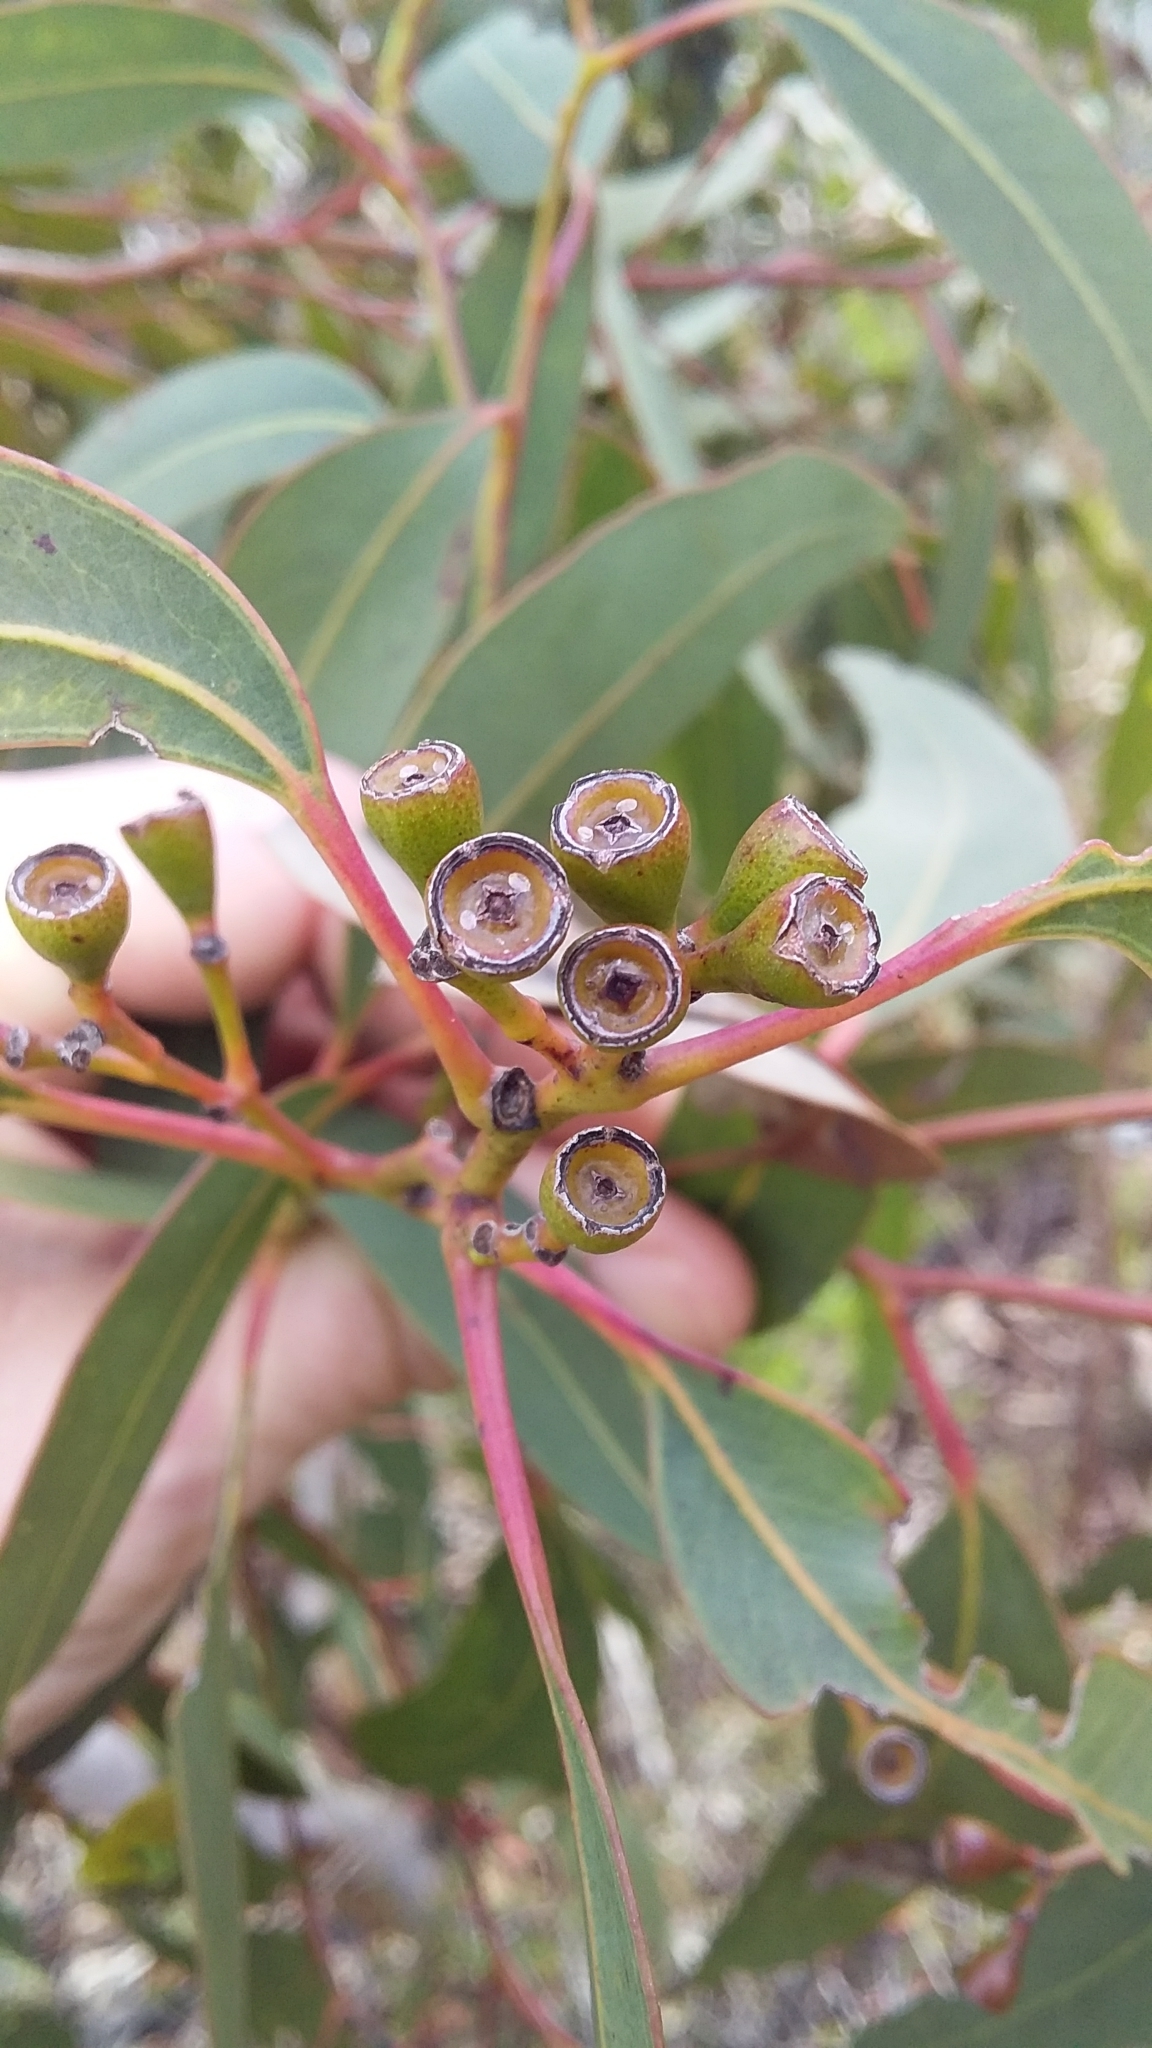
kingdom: Plantae
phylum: Tracheophyta
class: Magnoliopsida
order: Myrtales
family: Myrtaceae
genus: Eucalyptus
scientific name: Eucalyptus fasciculosa
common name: Hill gum
